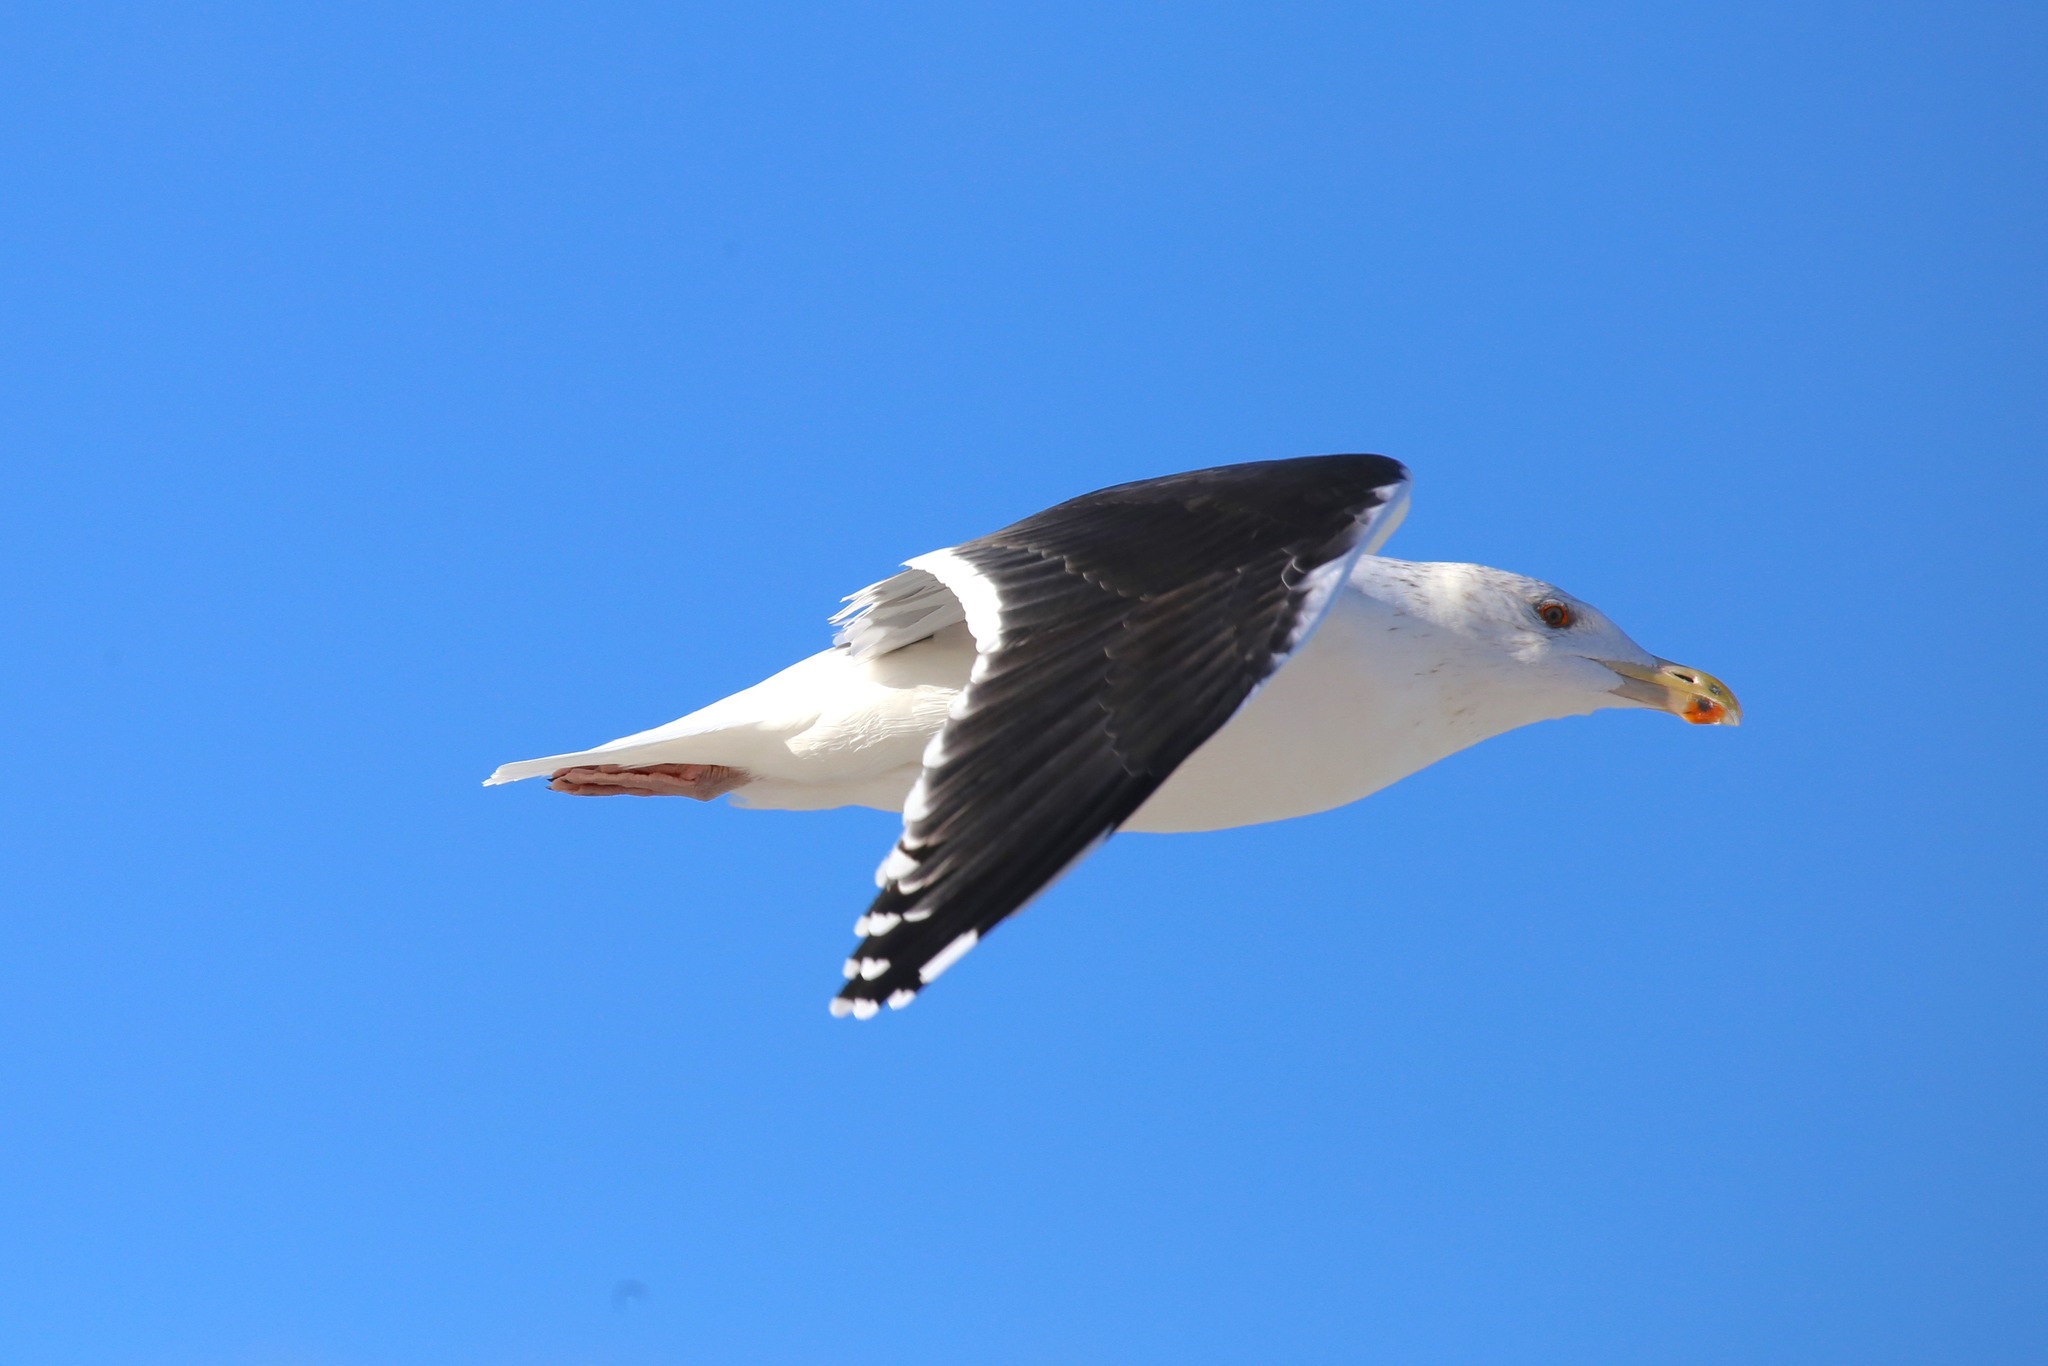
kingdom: Animalia
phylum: Chordata
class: Aves
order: Charadriiformes
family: Laridae
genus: Larus
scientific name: Larus marinus
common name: Great black-backed gull
